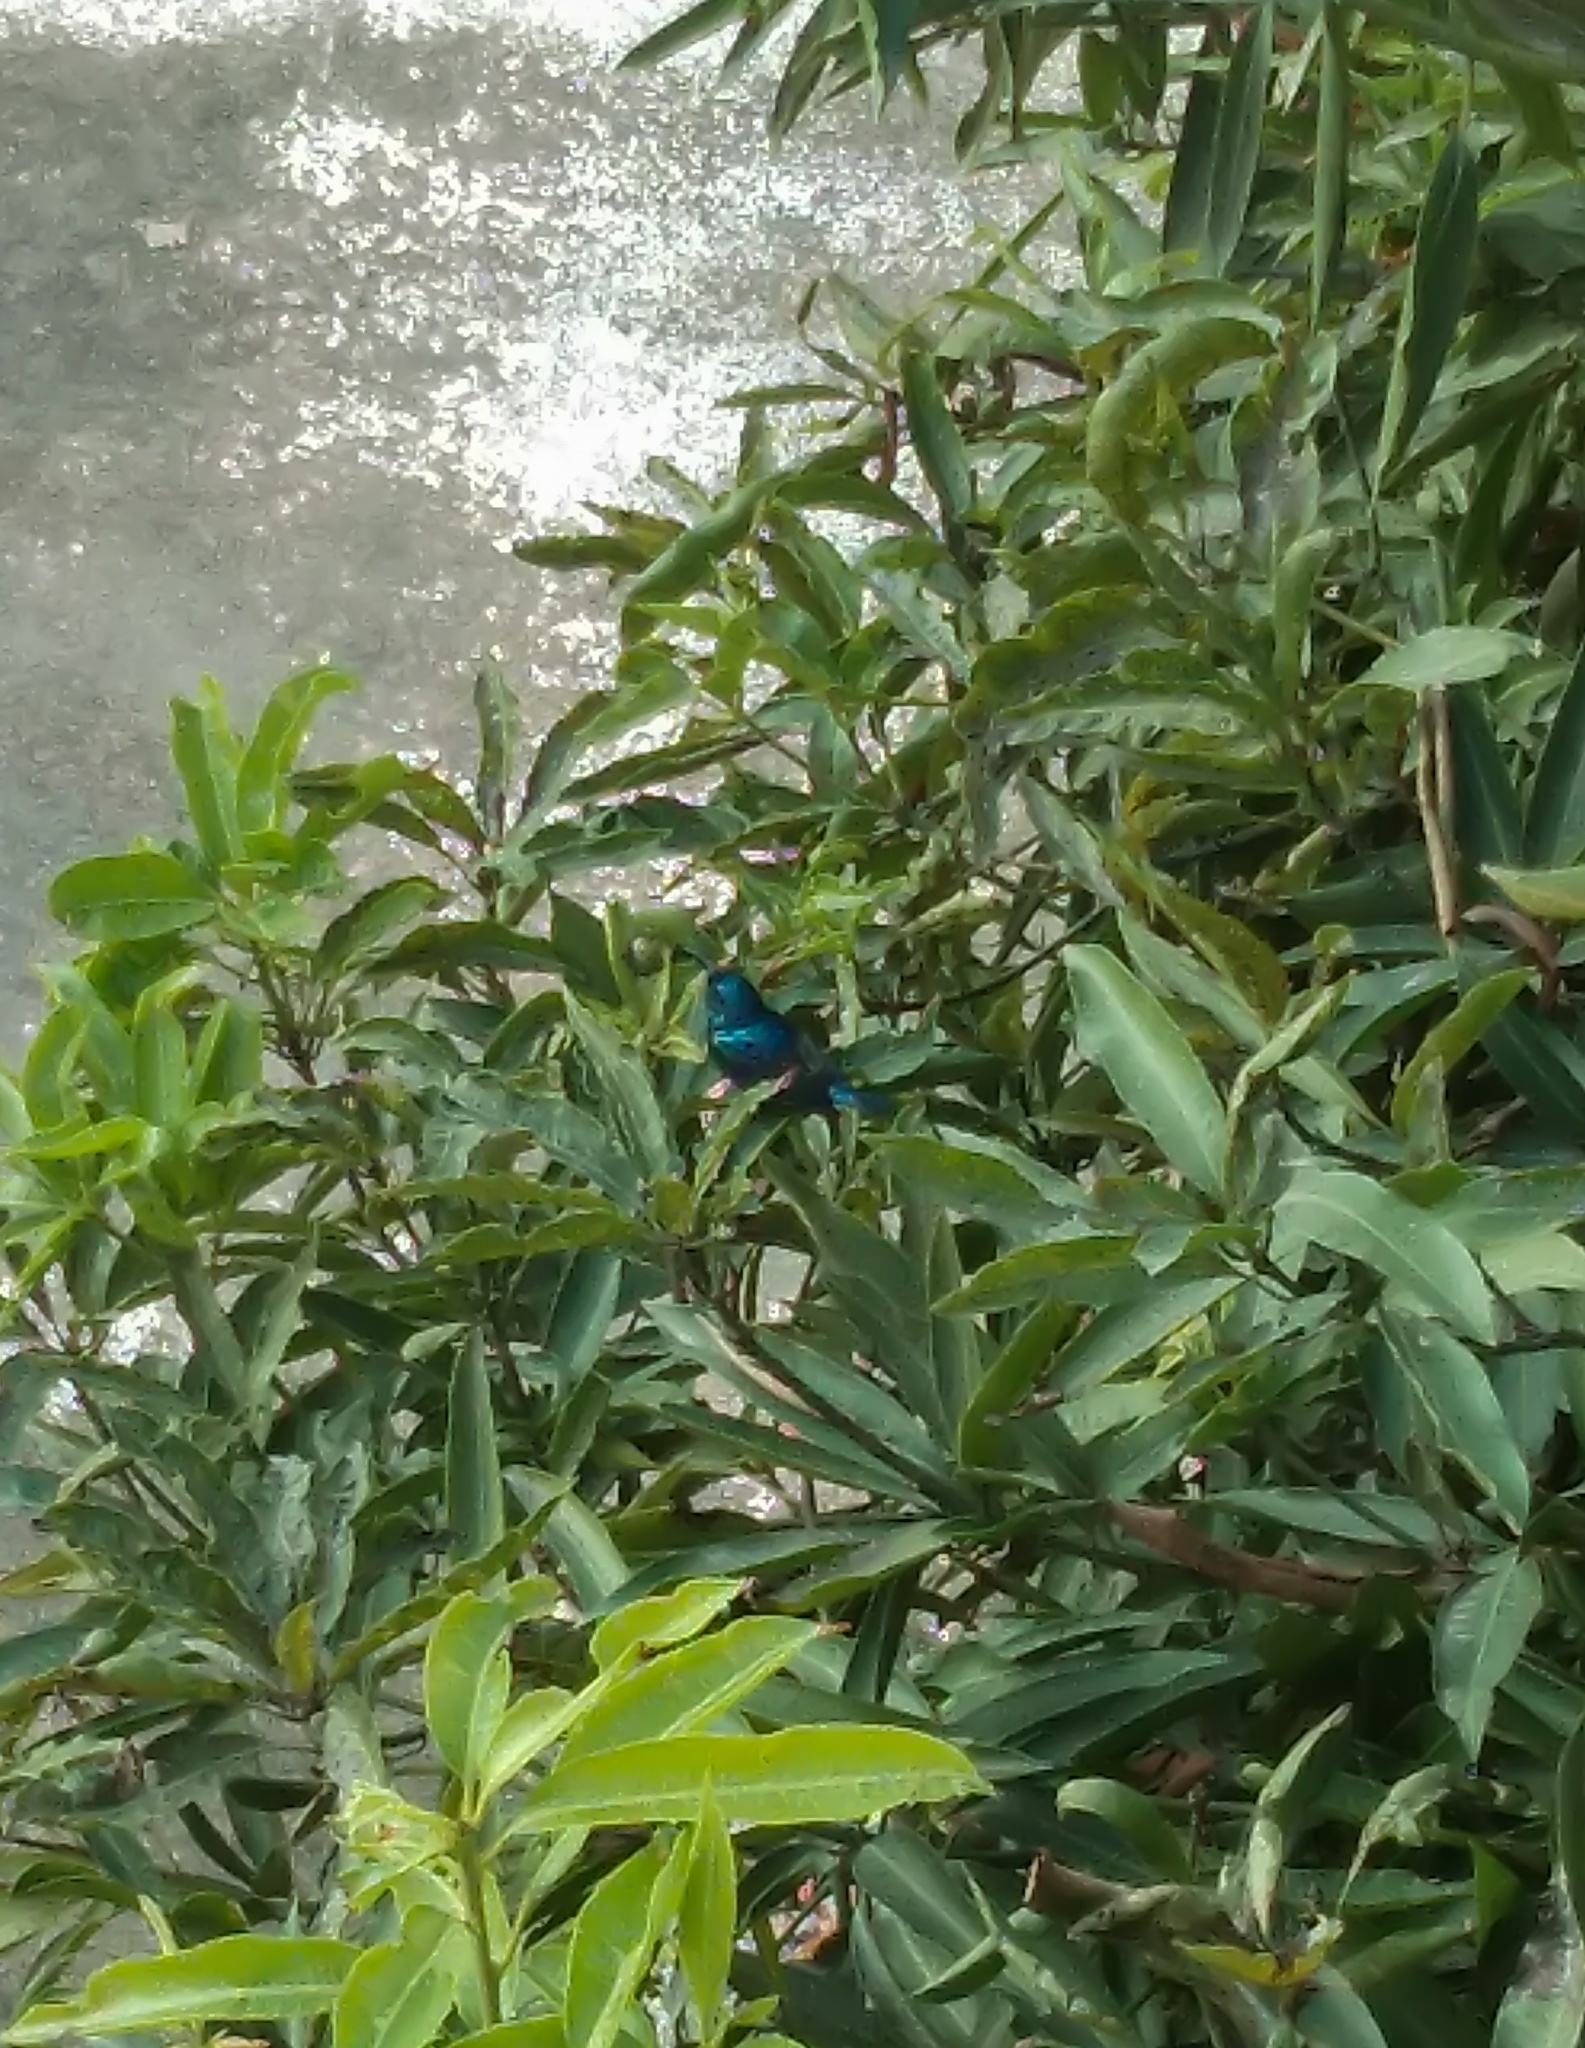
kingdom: Animalia
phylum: Chordata
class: Aves
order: Passeriformes
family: Nectariniidae
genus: Cinnyris
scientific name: Cinnyris asiaticus
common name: Purple sunbird
